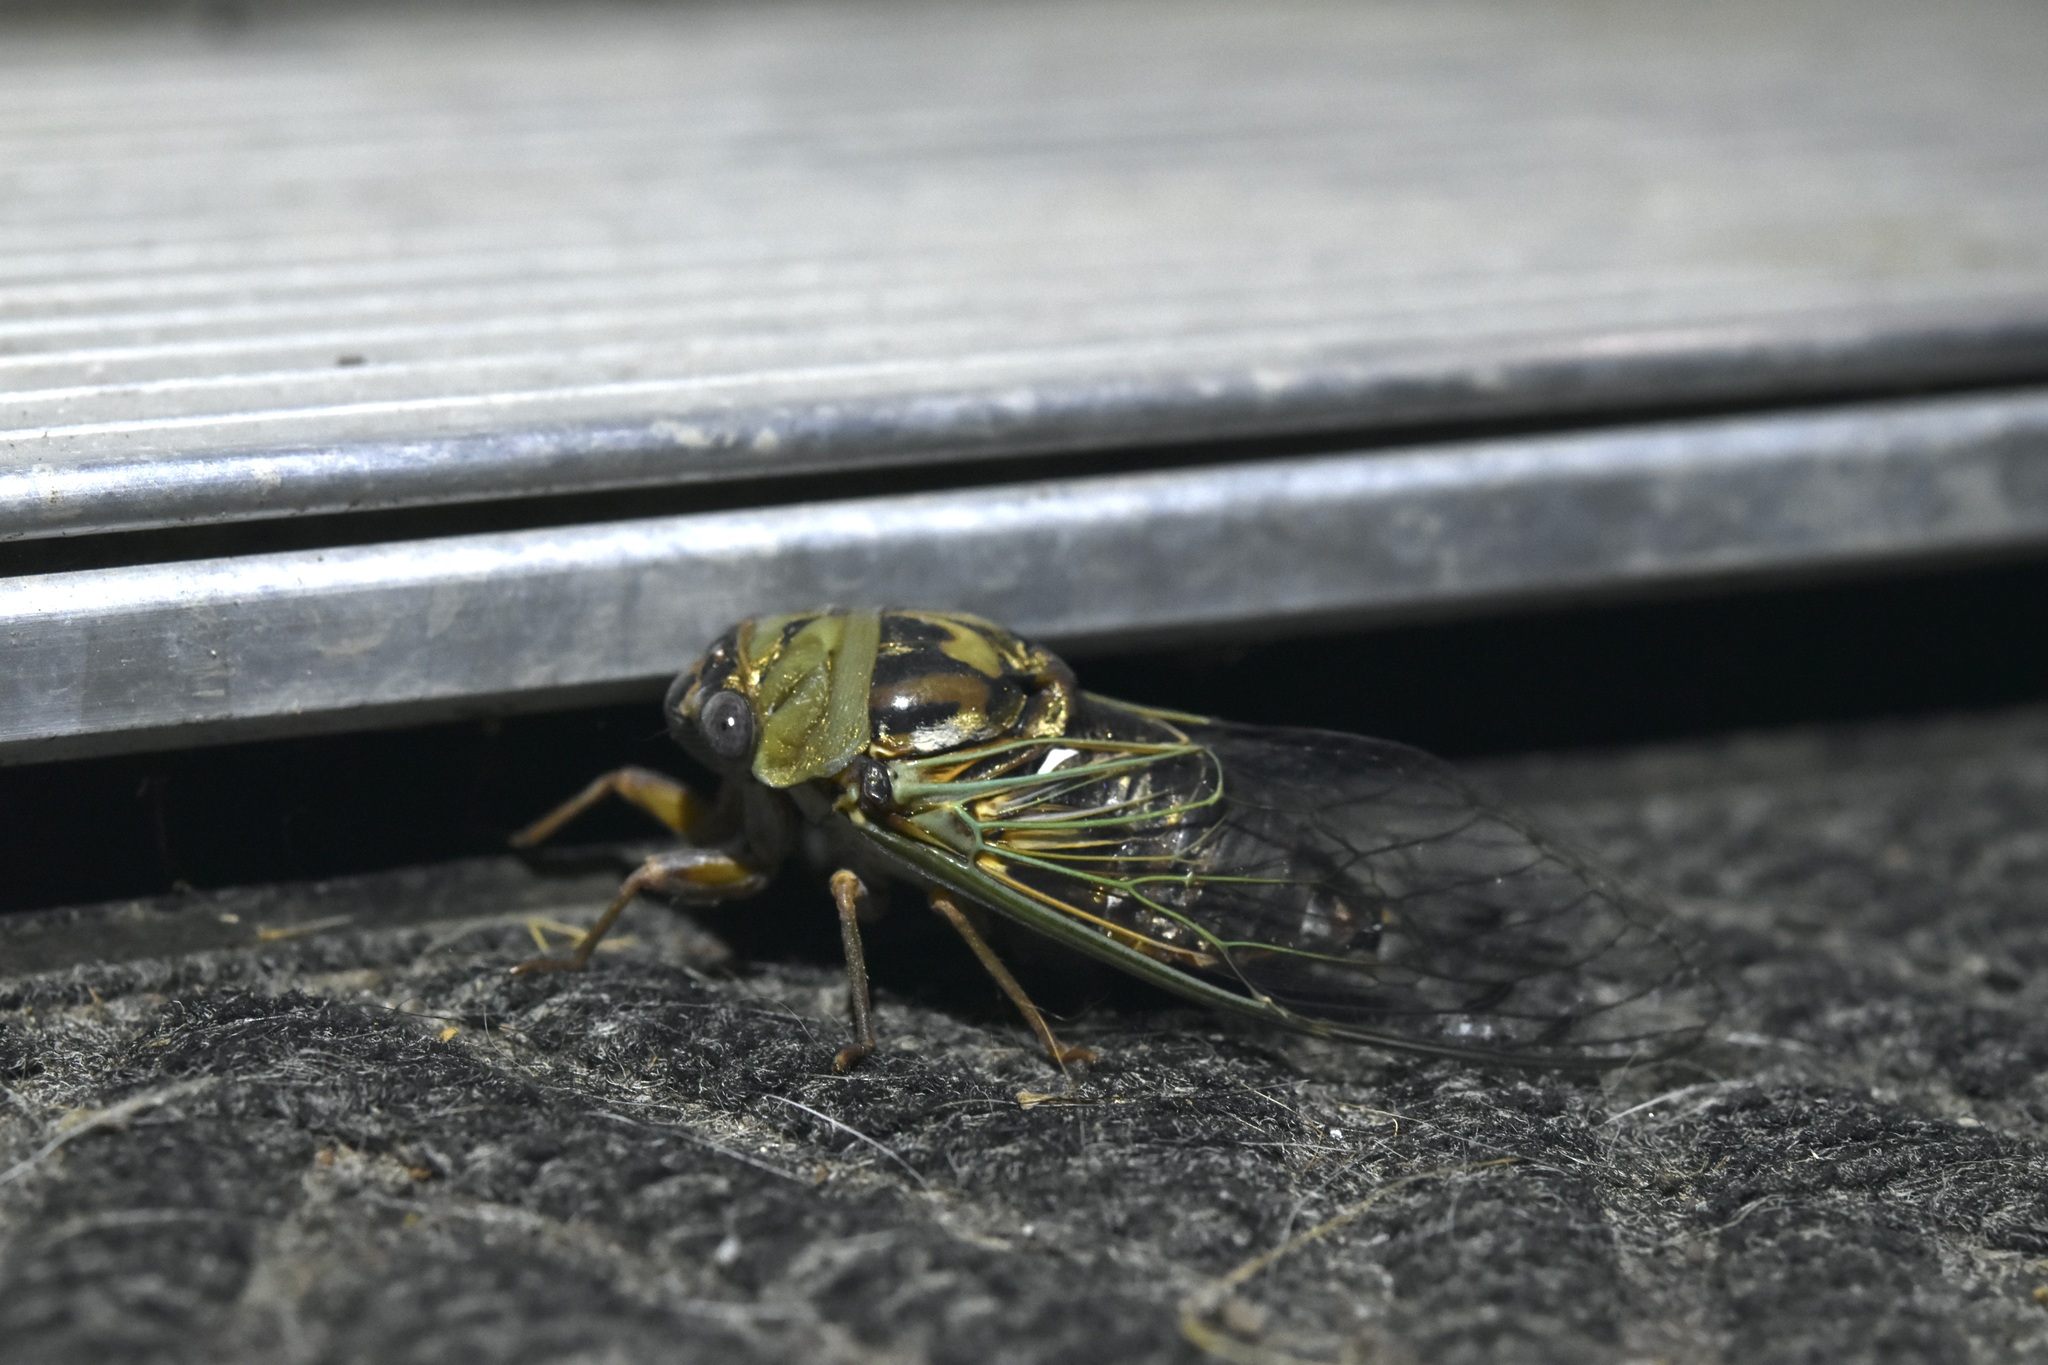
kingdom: Animalia
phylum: Arthropoda
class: Insecta
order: Hemiptera
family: Cicadidae
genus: Megatibicen
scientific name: Megatibicen resh
